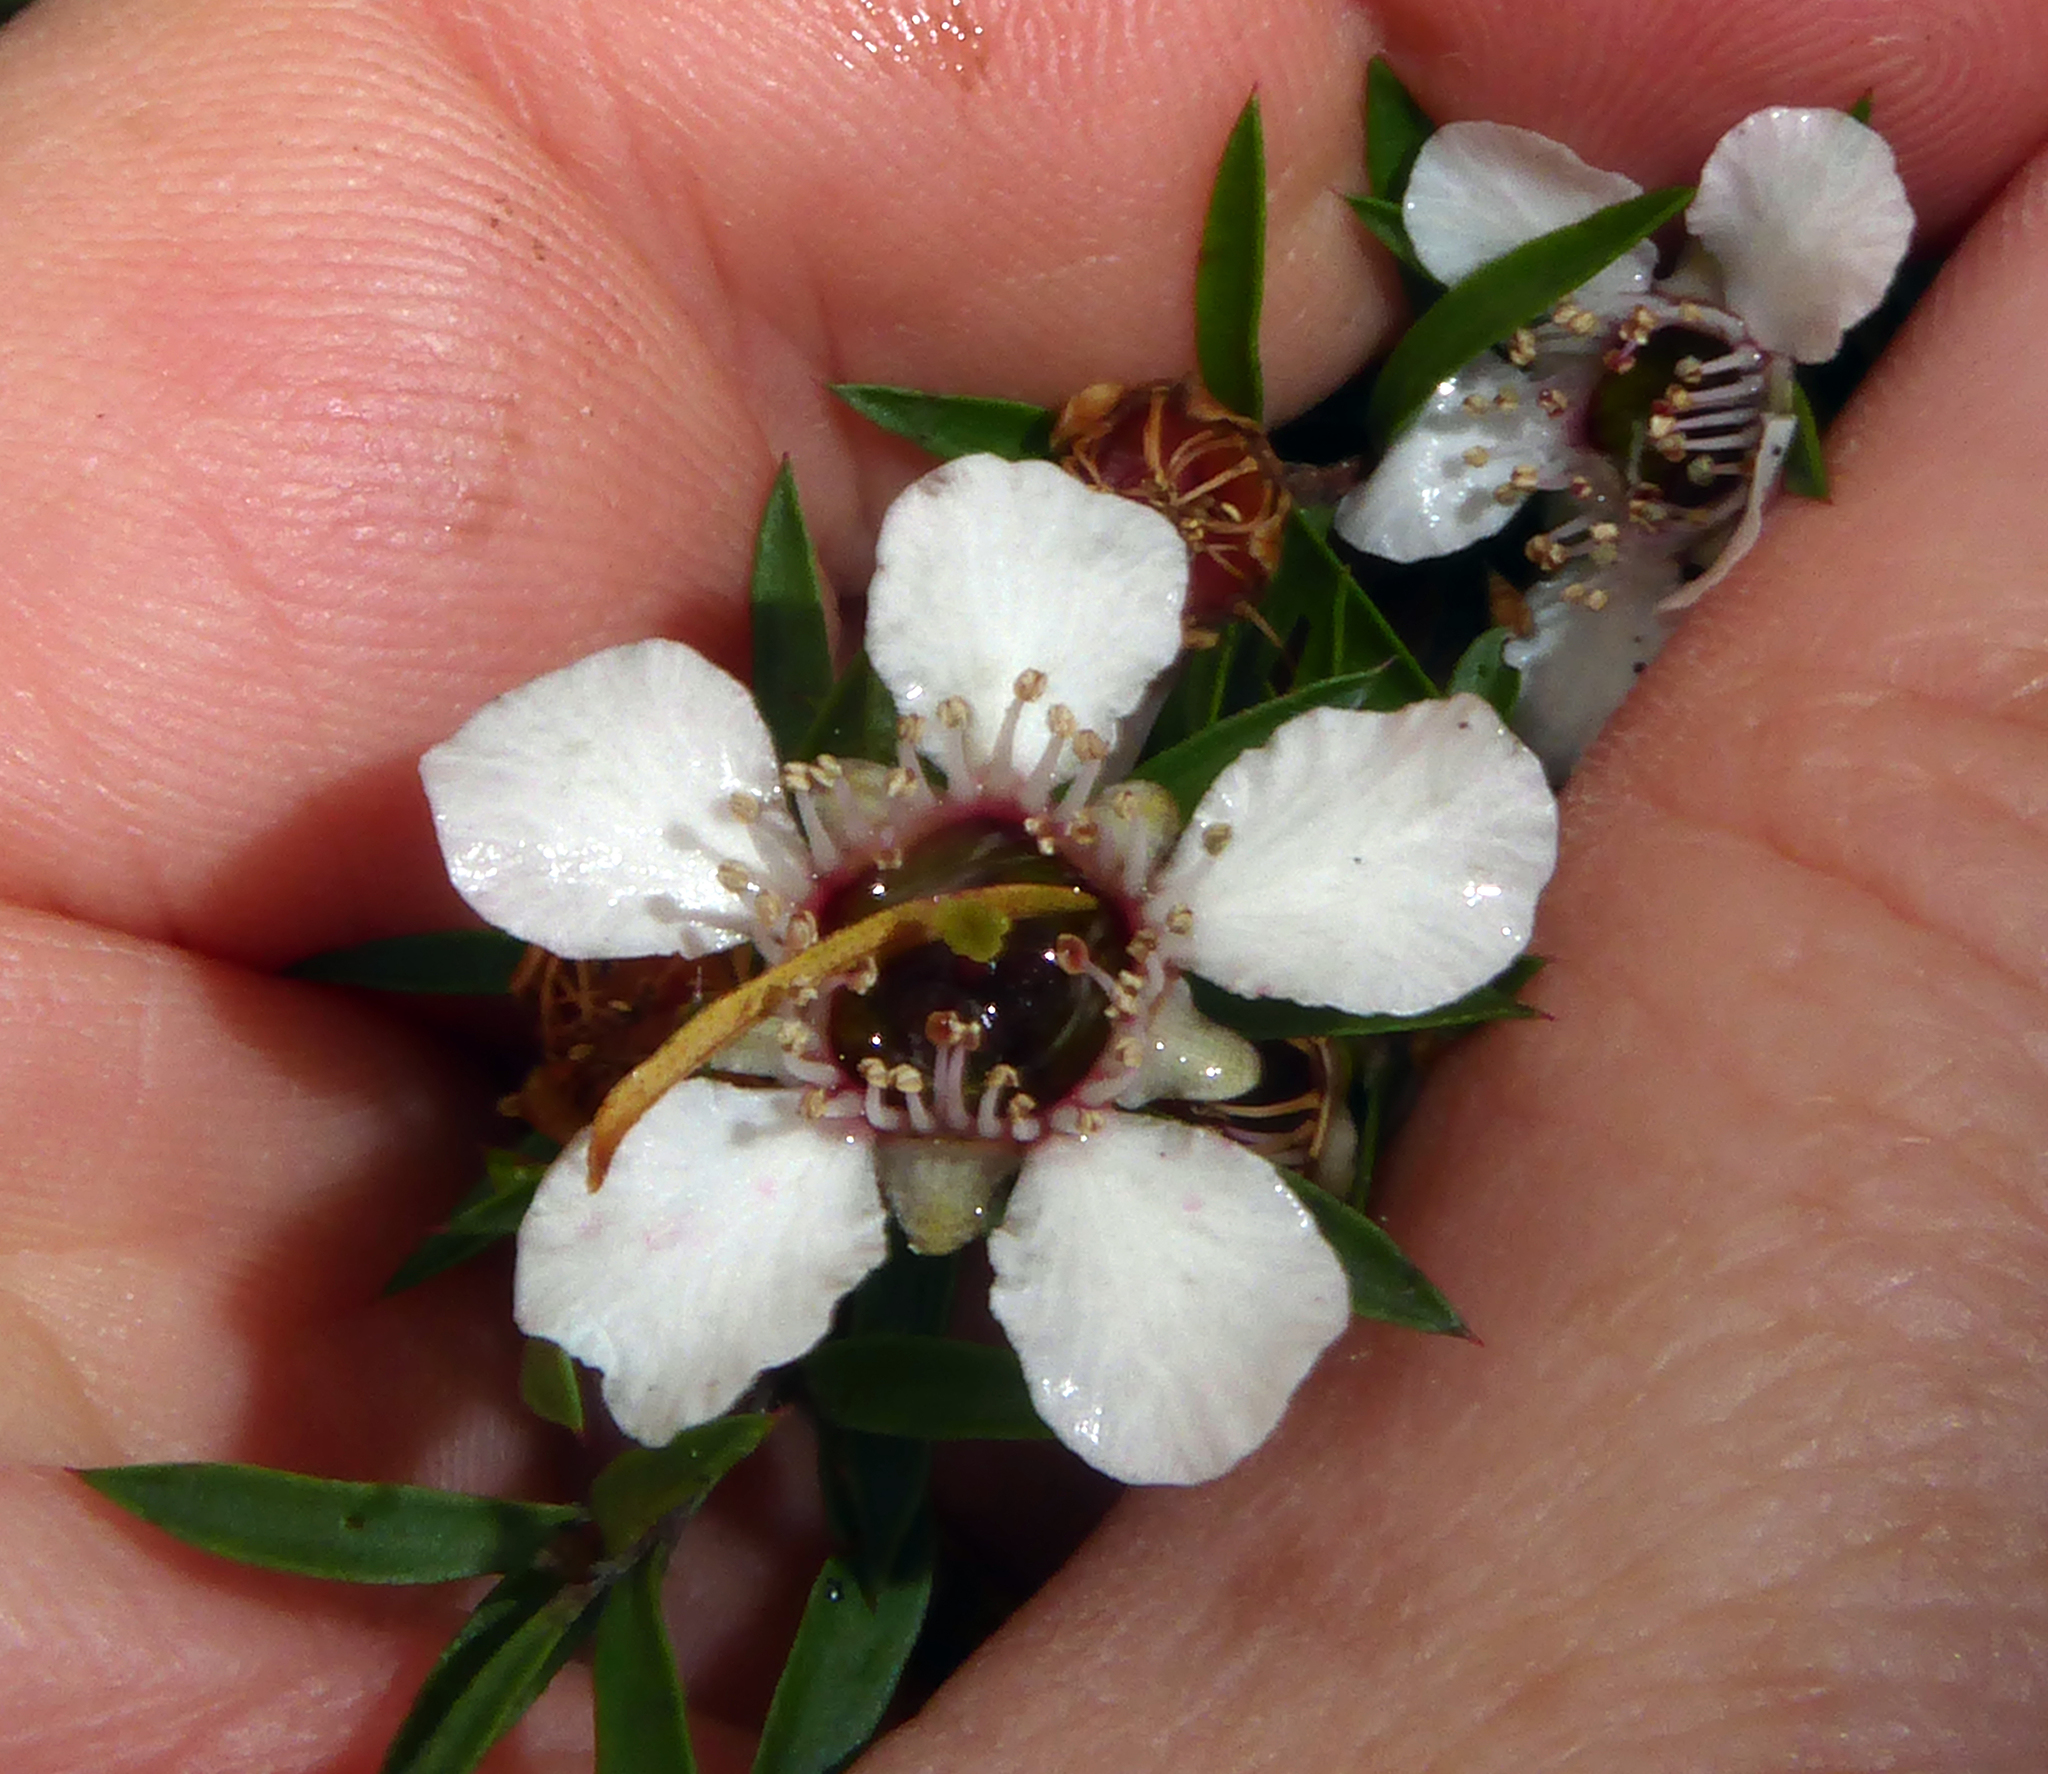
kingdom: Plantae
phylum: Tracheophyta
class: Magnoliopsida
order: Myrtales
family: Myrtaceae
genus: Leptospermum
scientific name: Leptospermum scoparium
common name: Broom tea-tree
